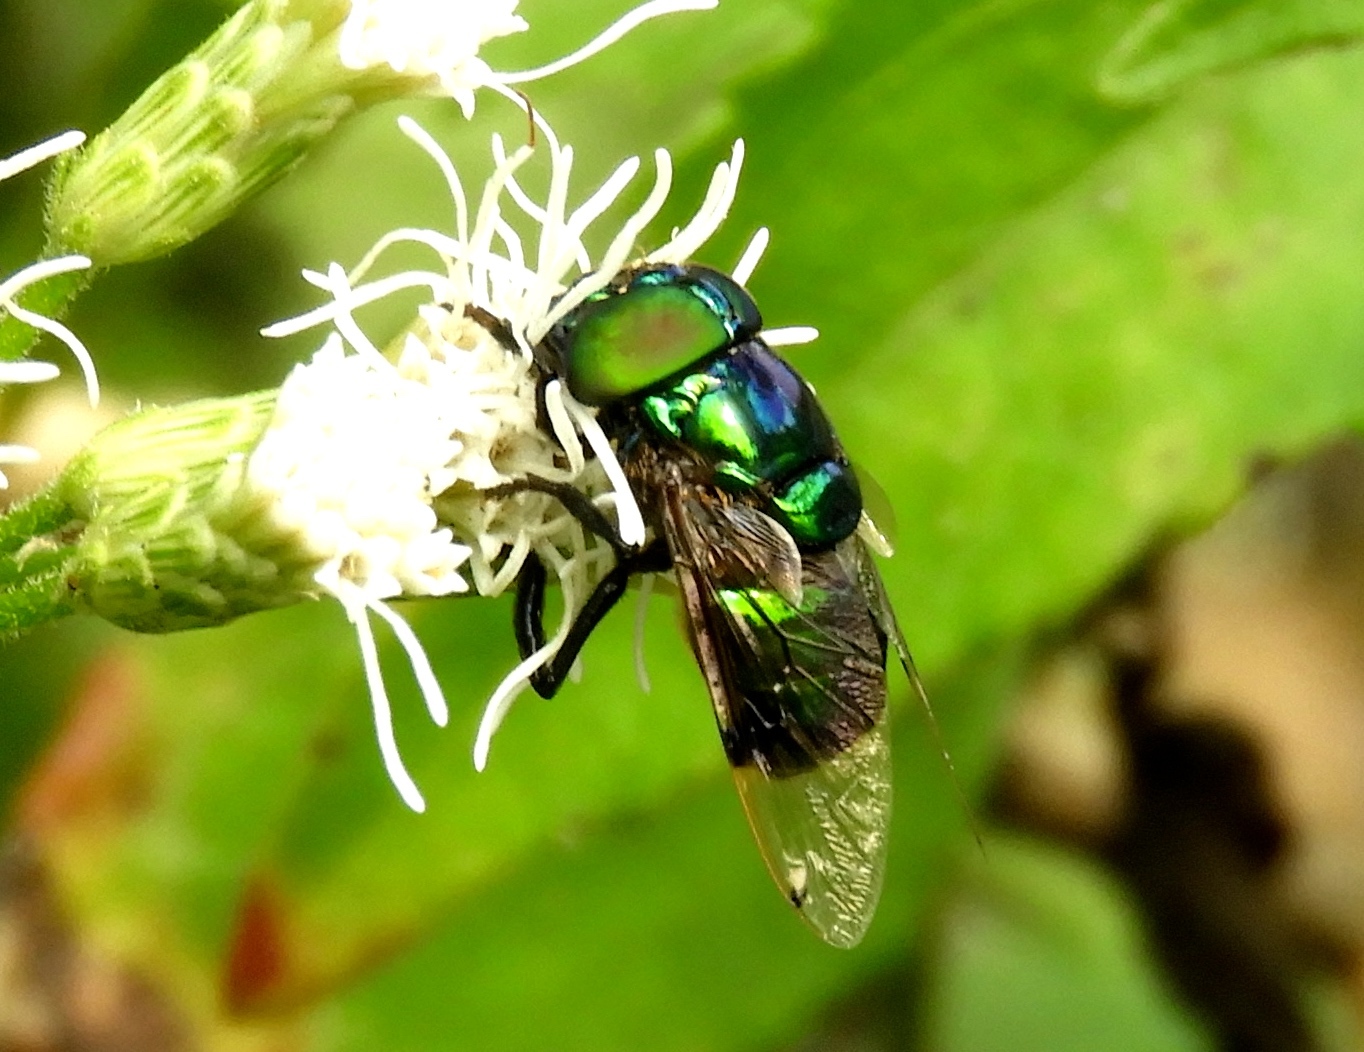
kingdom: Animalia
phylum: Arthropoda
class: Insecta
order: Diptera
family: Syrphidae
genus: Ornidia
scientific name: Ornidia obesa
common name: Syrphid fly
